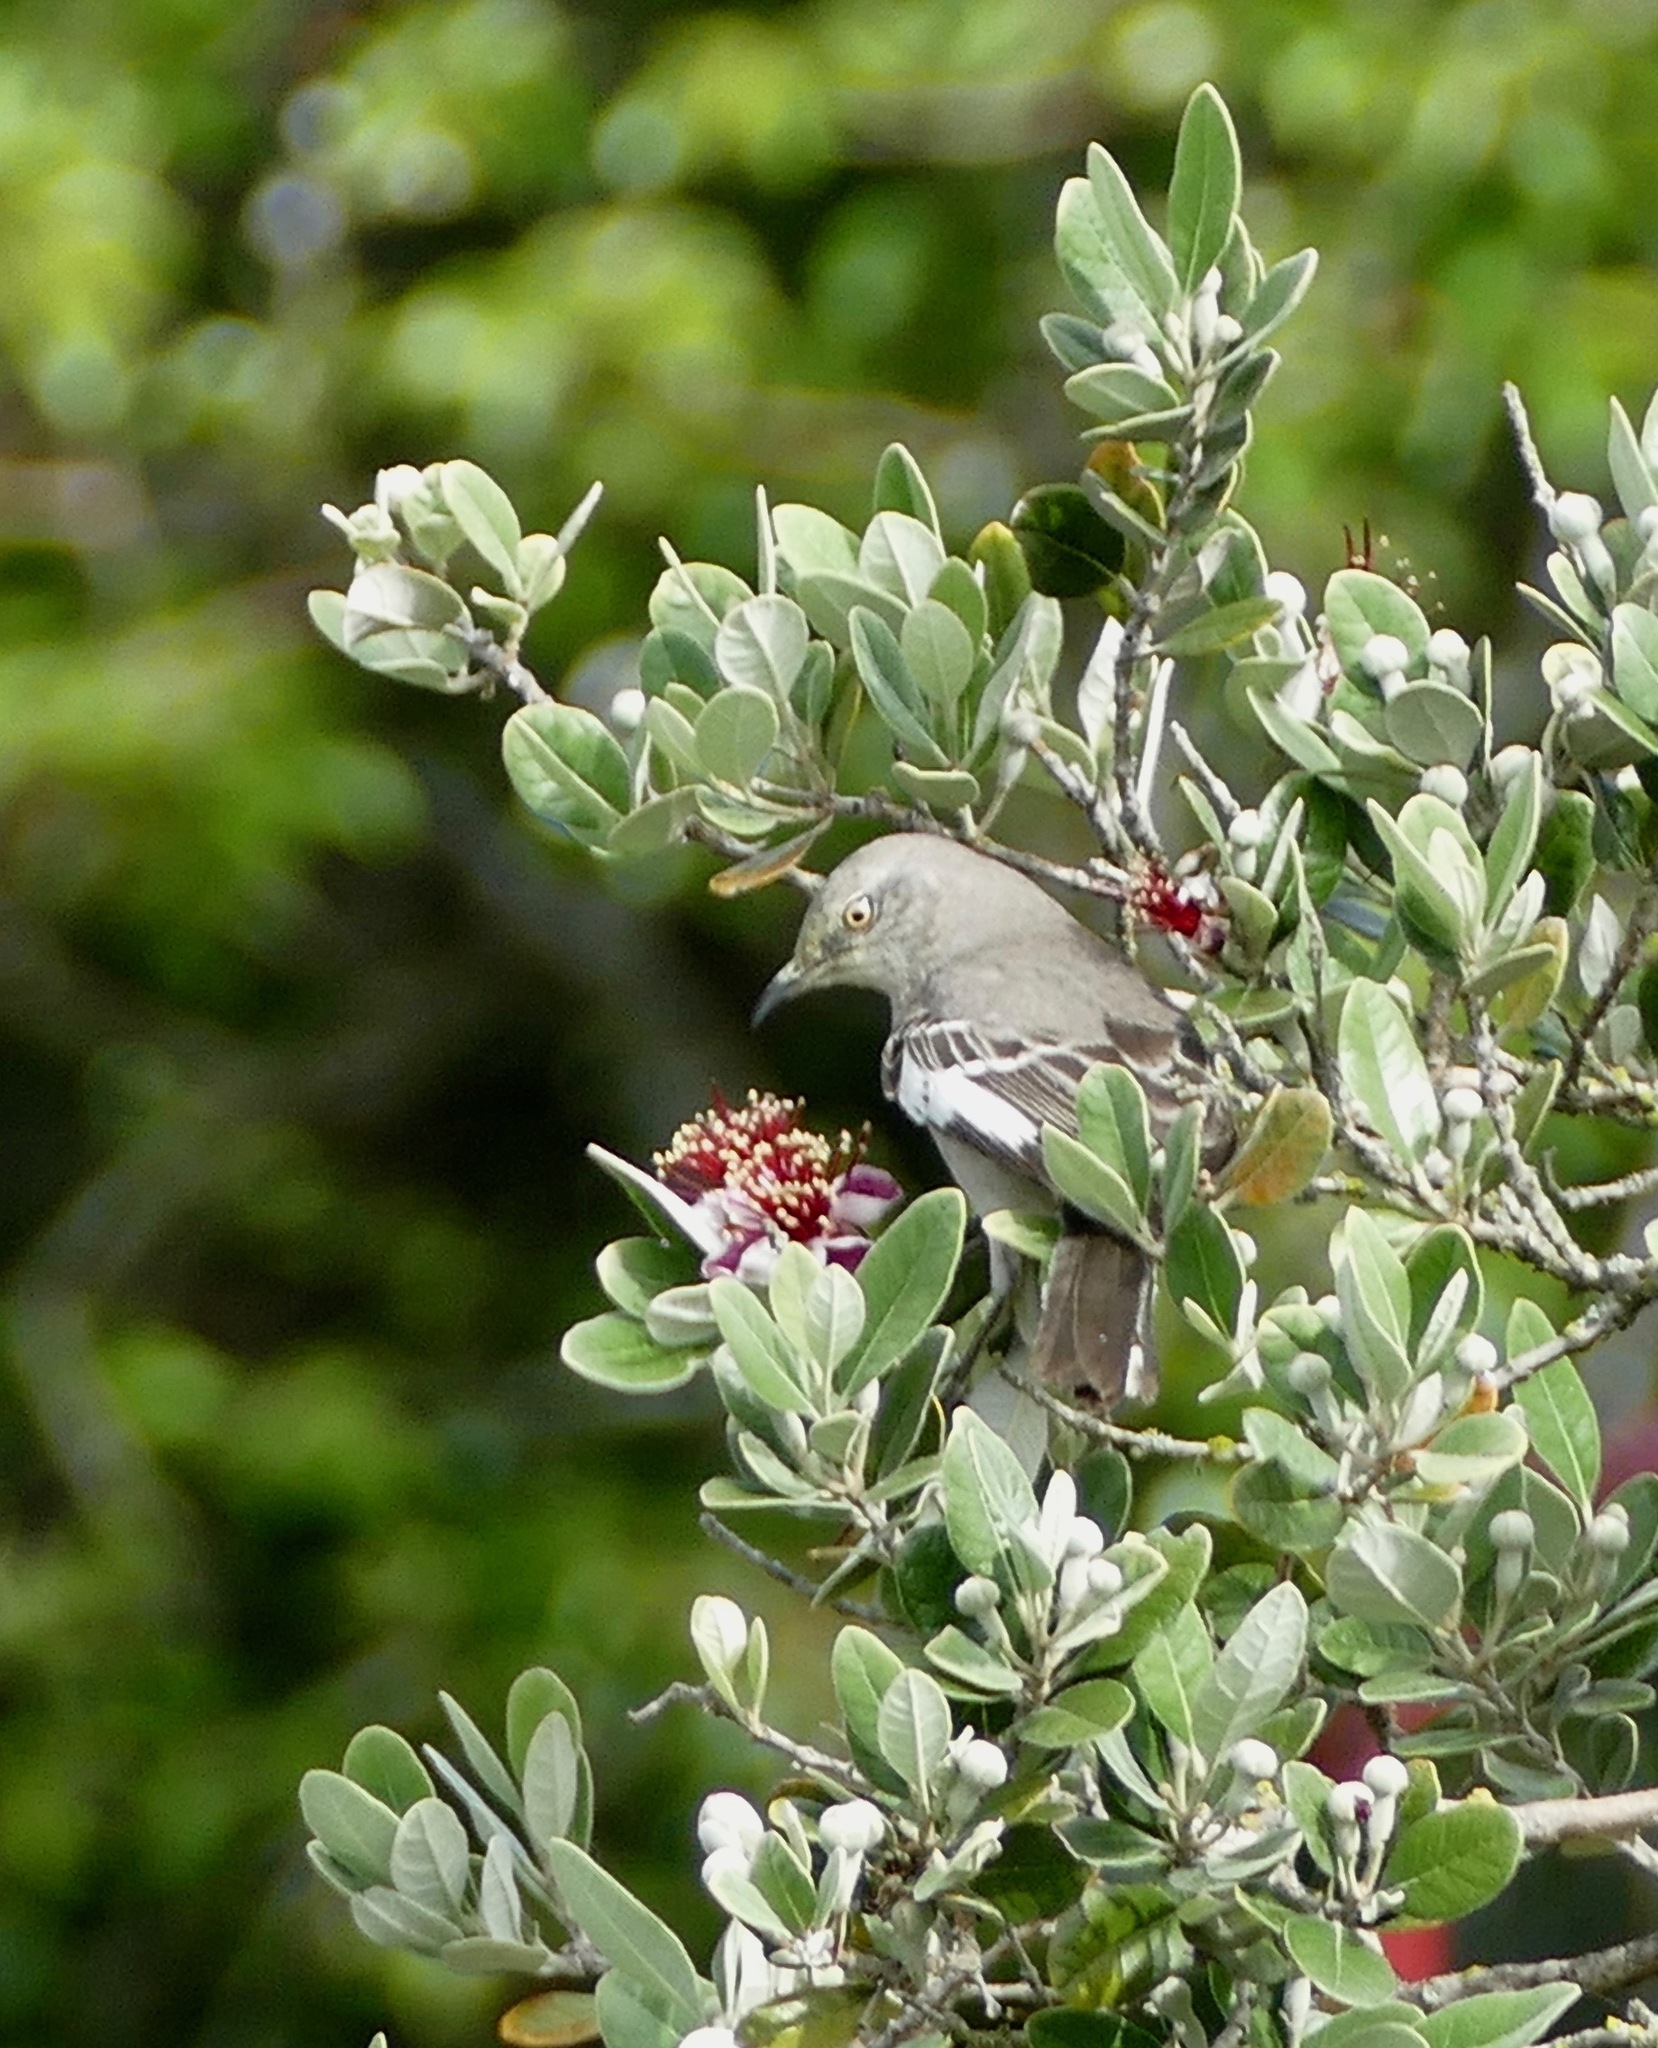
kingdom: Animalia
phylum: Chordata
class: Aves
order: Passeriformes
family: Mimidae
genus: Mimus
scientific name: Mimus polyglottos
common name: Northern mockingbird
